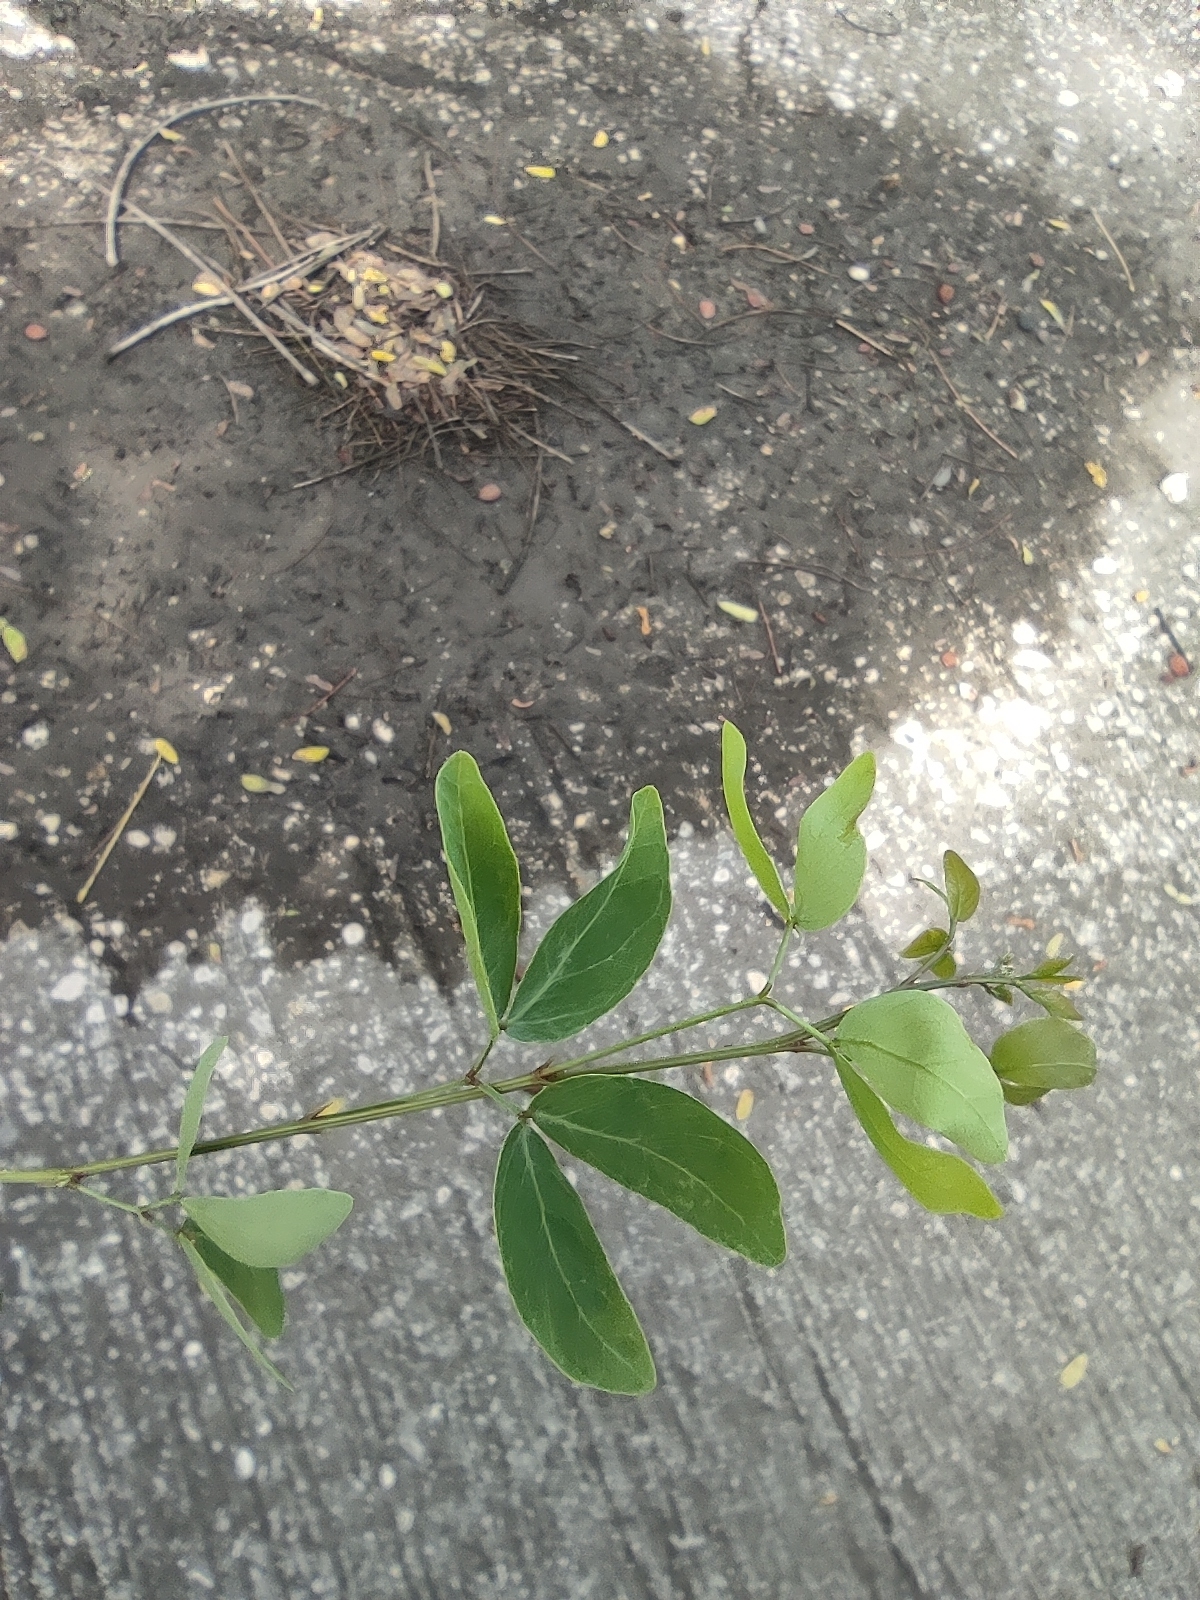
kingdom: Plantae
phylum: Tracheophyta
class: Magnoliopsida
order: Fabales
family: Fabaceae
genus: Pithecellobium
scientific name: Pithecellobium dulce
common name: Monkeypod
